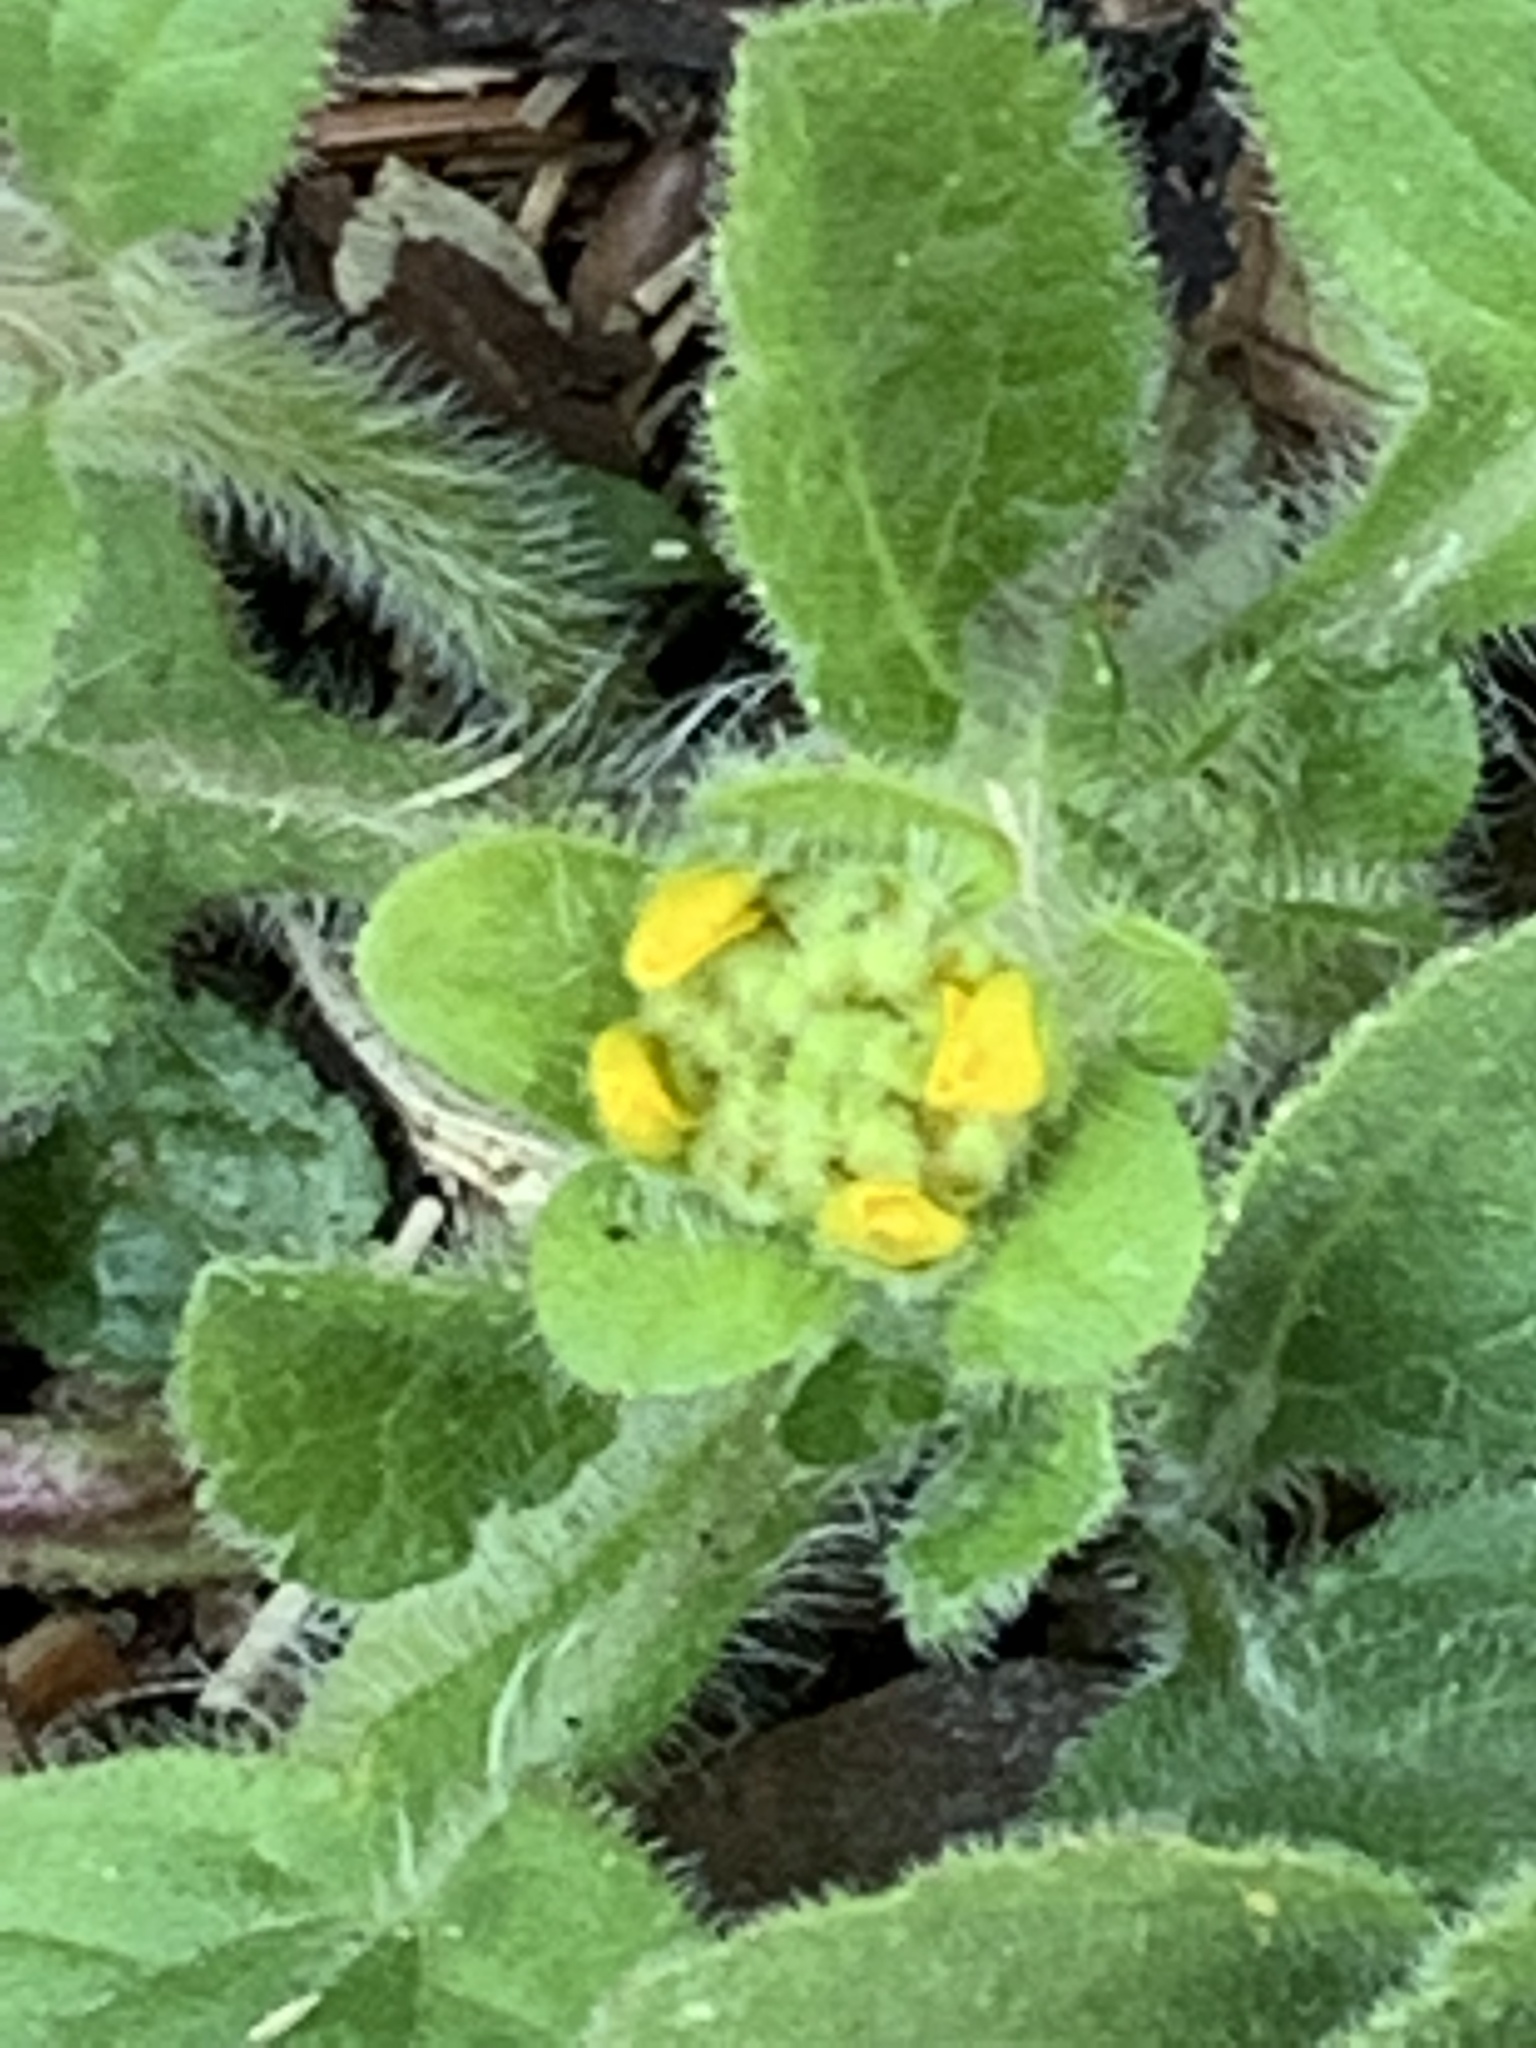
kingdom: Plantae
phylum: Tracheophyta
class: Magnoliopsida
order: Asterales
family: Asteraceae
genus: Chrysogonum
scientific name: Chrysogonum virginianum
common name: Golden-knee
